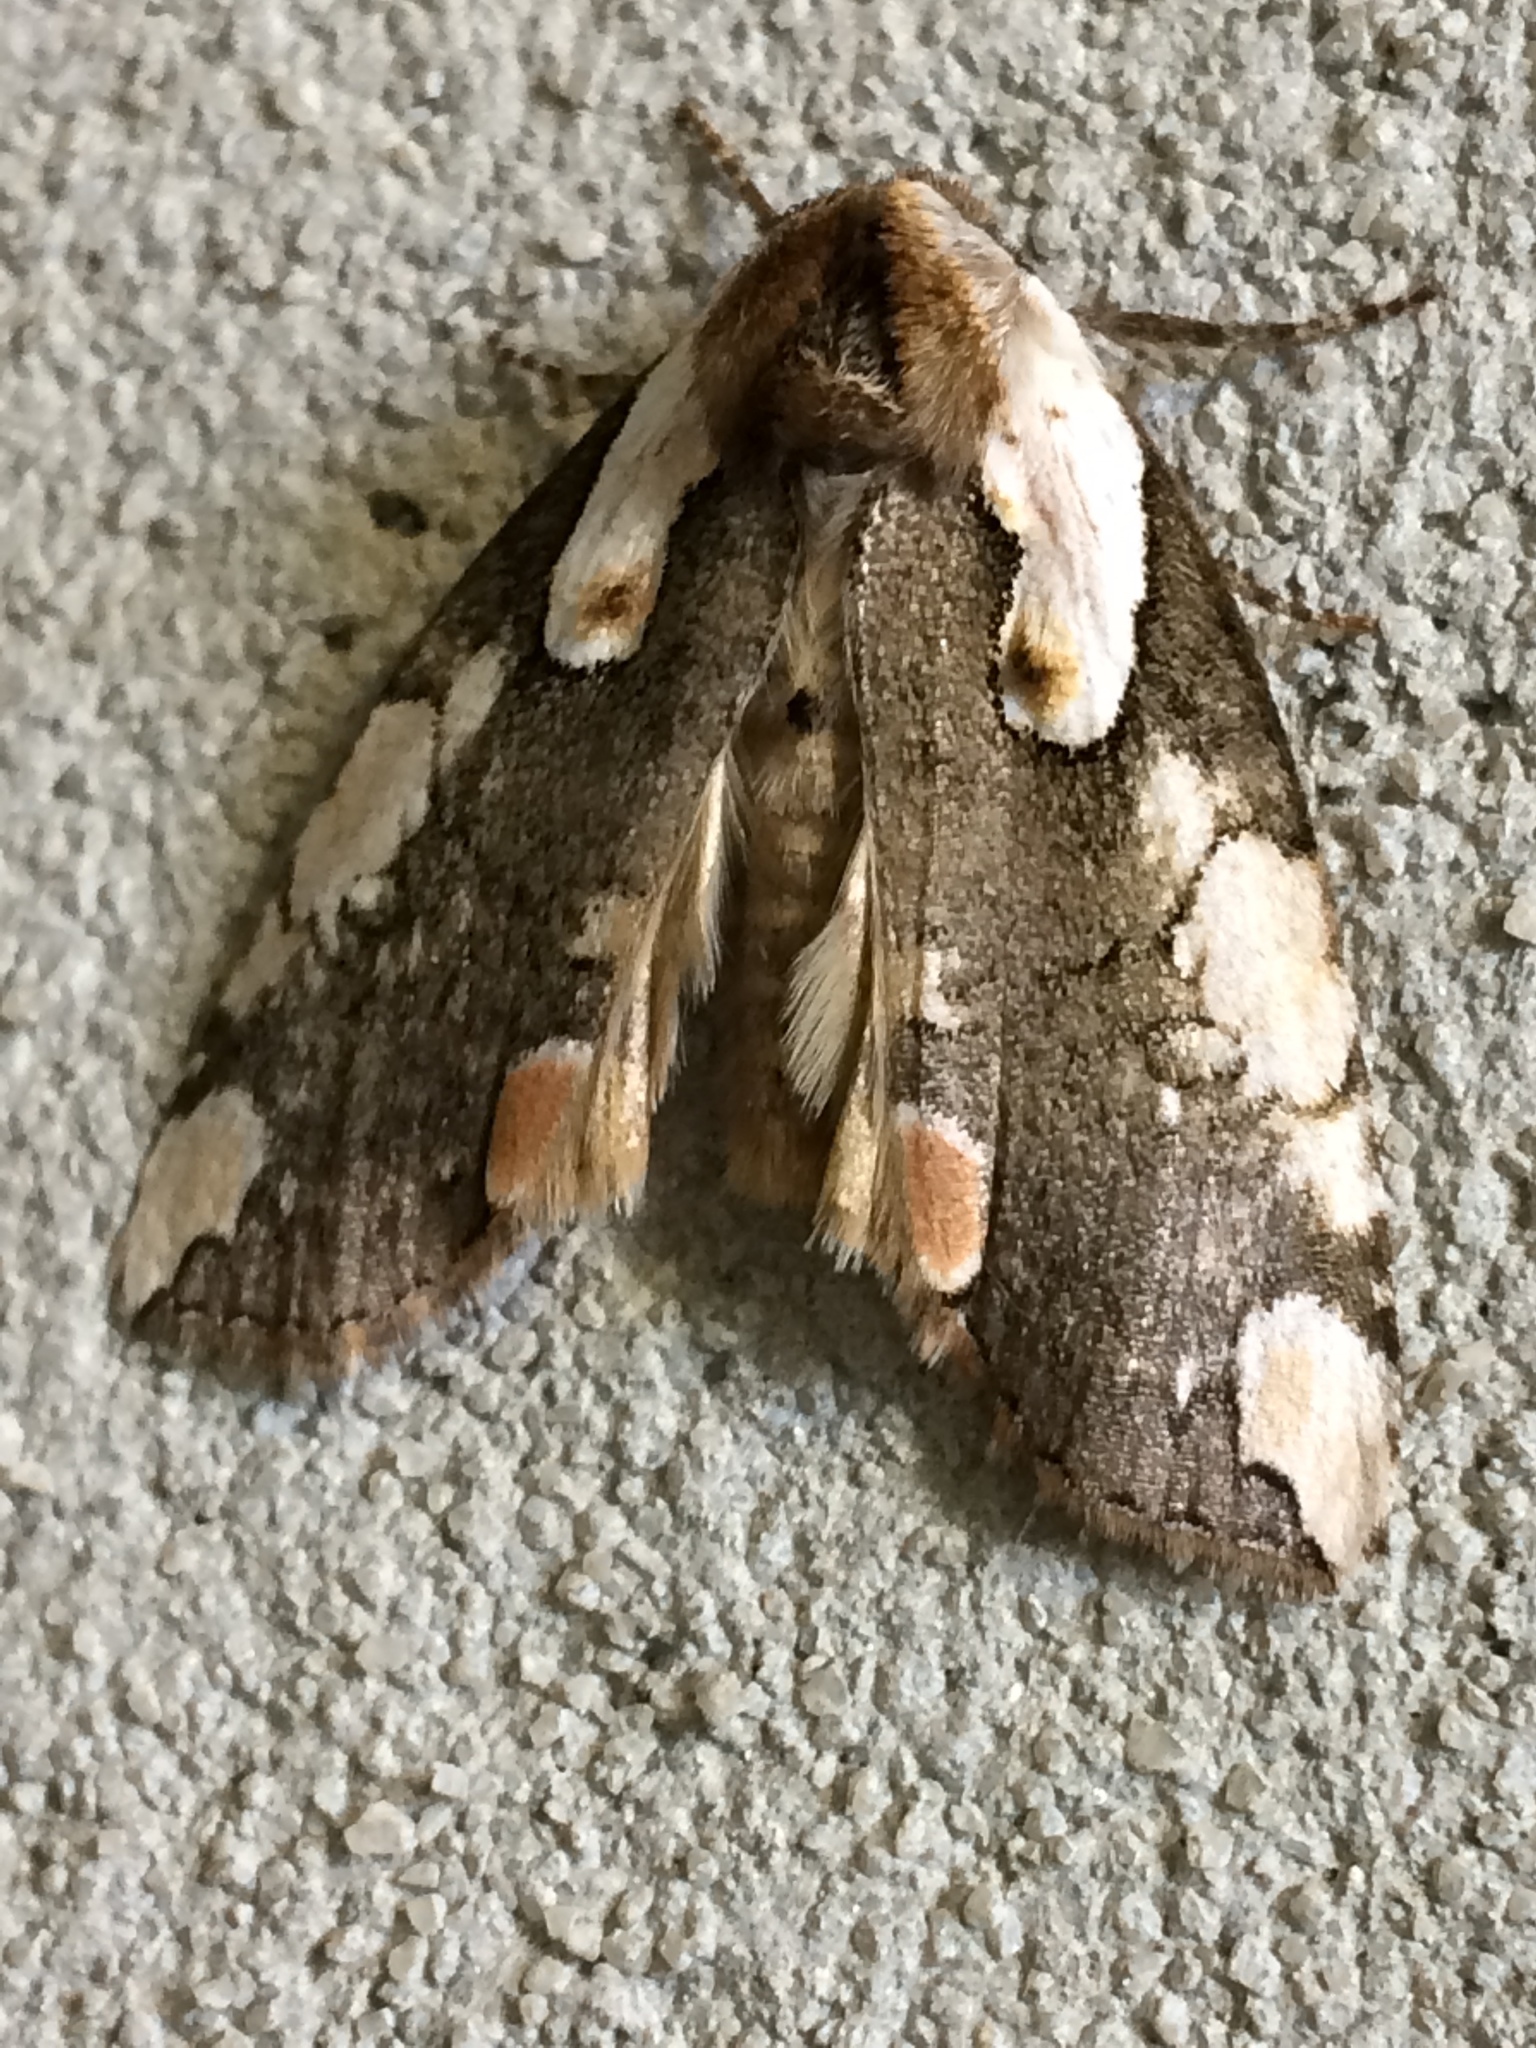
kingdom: Animalia
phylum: Arthropoda
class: Insecta
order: Lepidoptera
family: Drepanidae
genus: Euthyatira
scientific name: Euthyatira pudens
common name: Dogwood thyatirid moth
